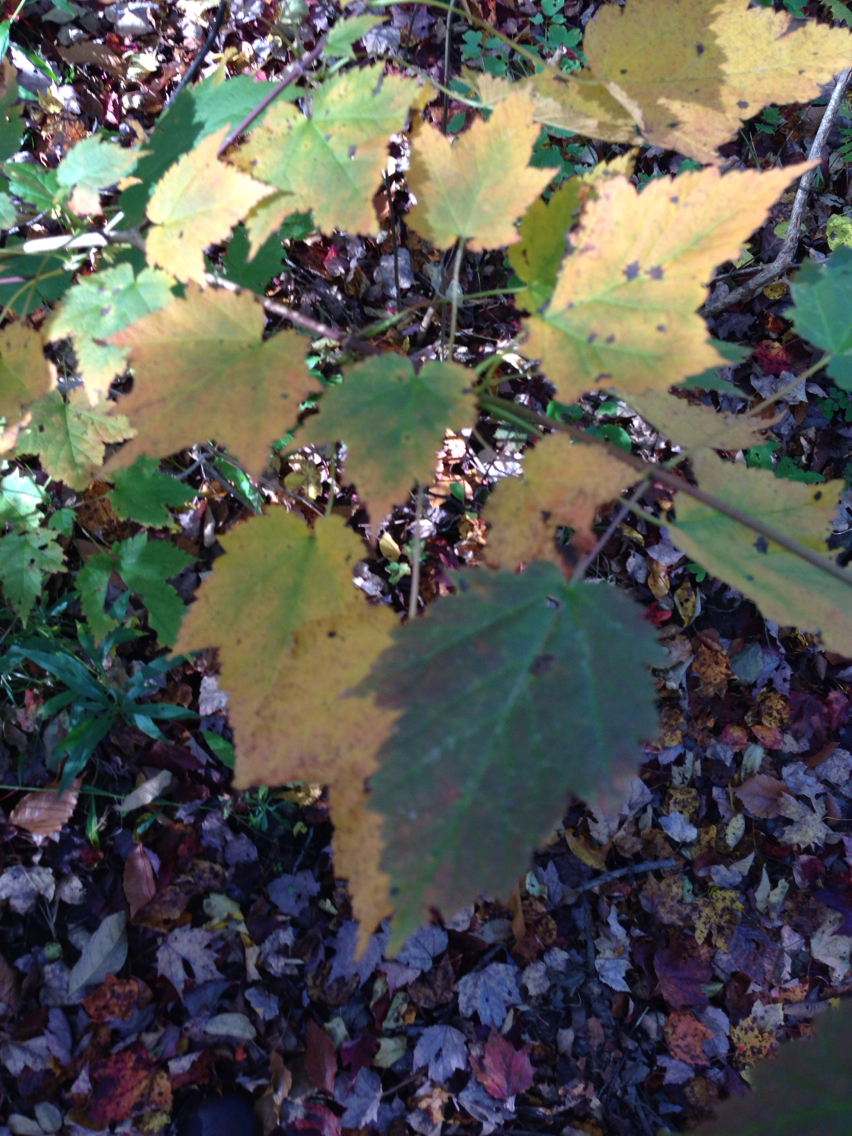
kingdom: Plantae
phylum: Tracheophyta
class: Magnoliopsida
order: Sapindales
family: Sapindaceae
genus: Acer
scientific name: Acer spicatum
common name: Mountain maple
